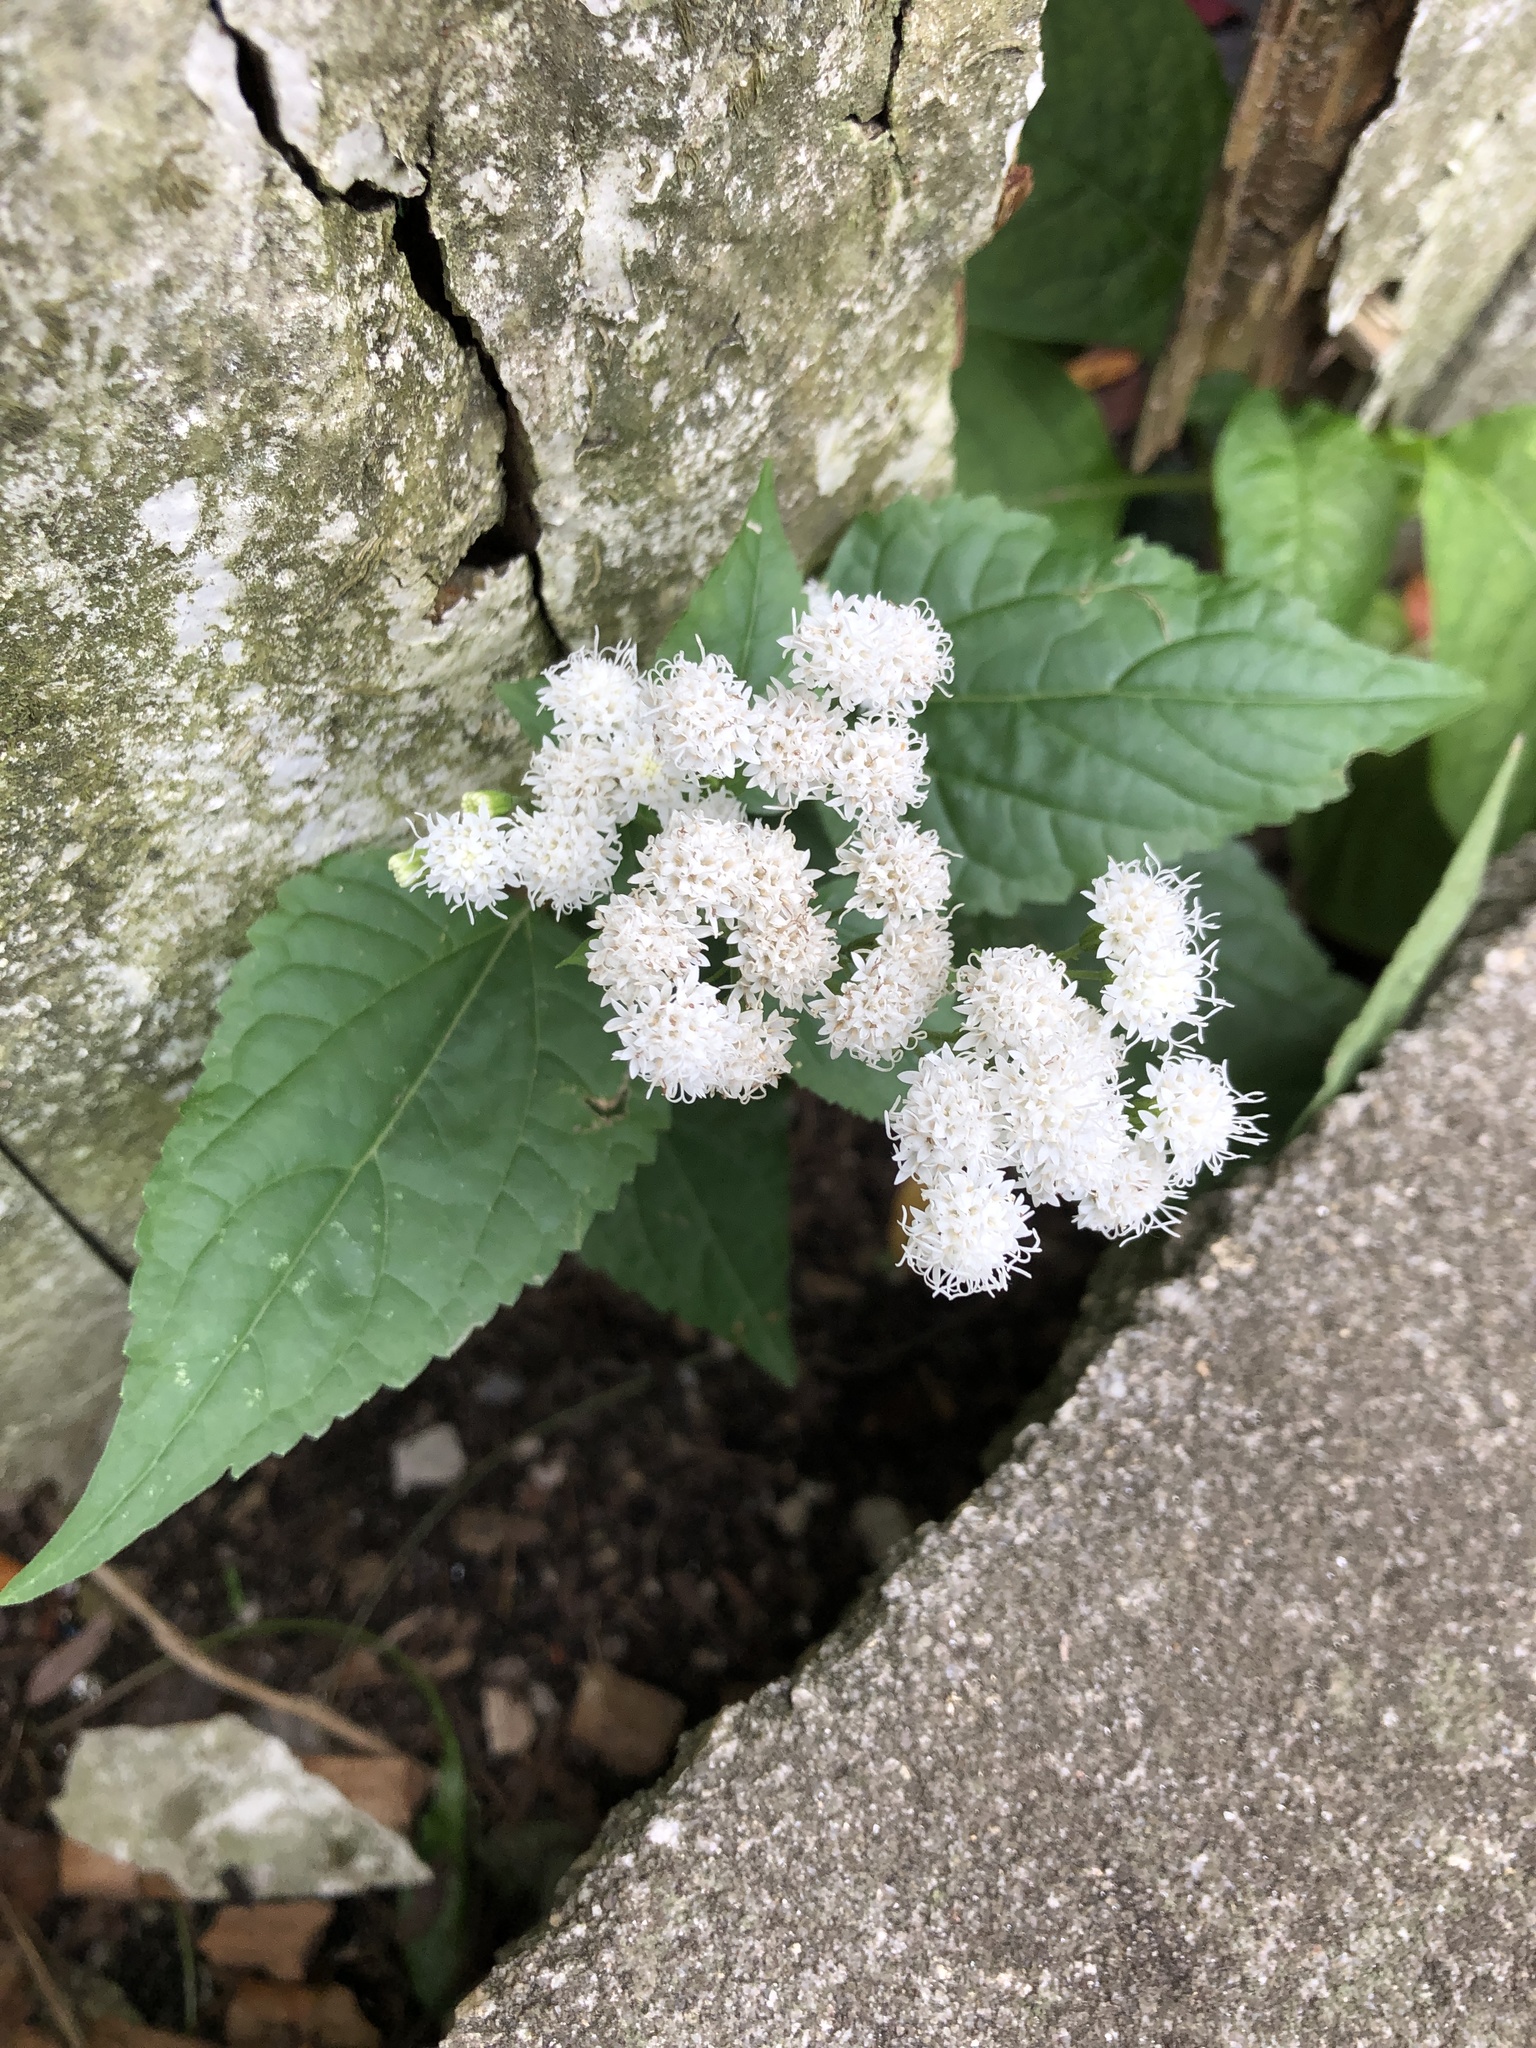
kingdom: Plantae
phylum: Tracheophyta
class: Magnoliopsida
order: Asterales
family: Asteraceae
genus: Ageratina
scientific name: Ageratina altissima
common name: White snakeroot
